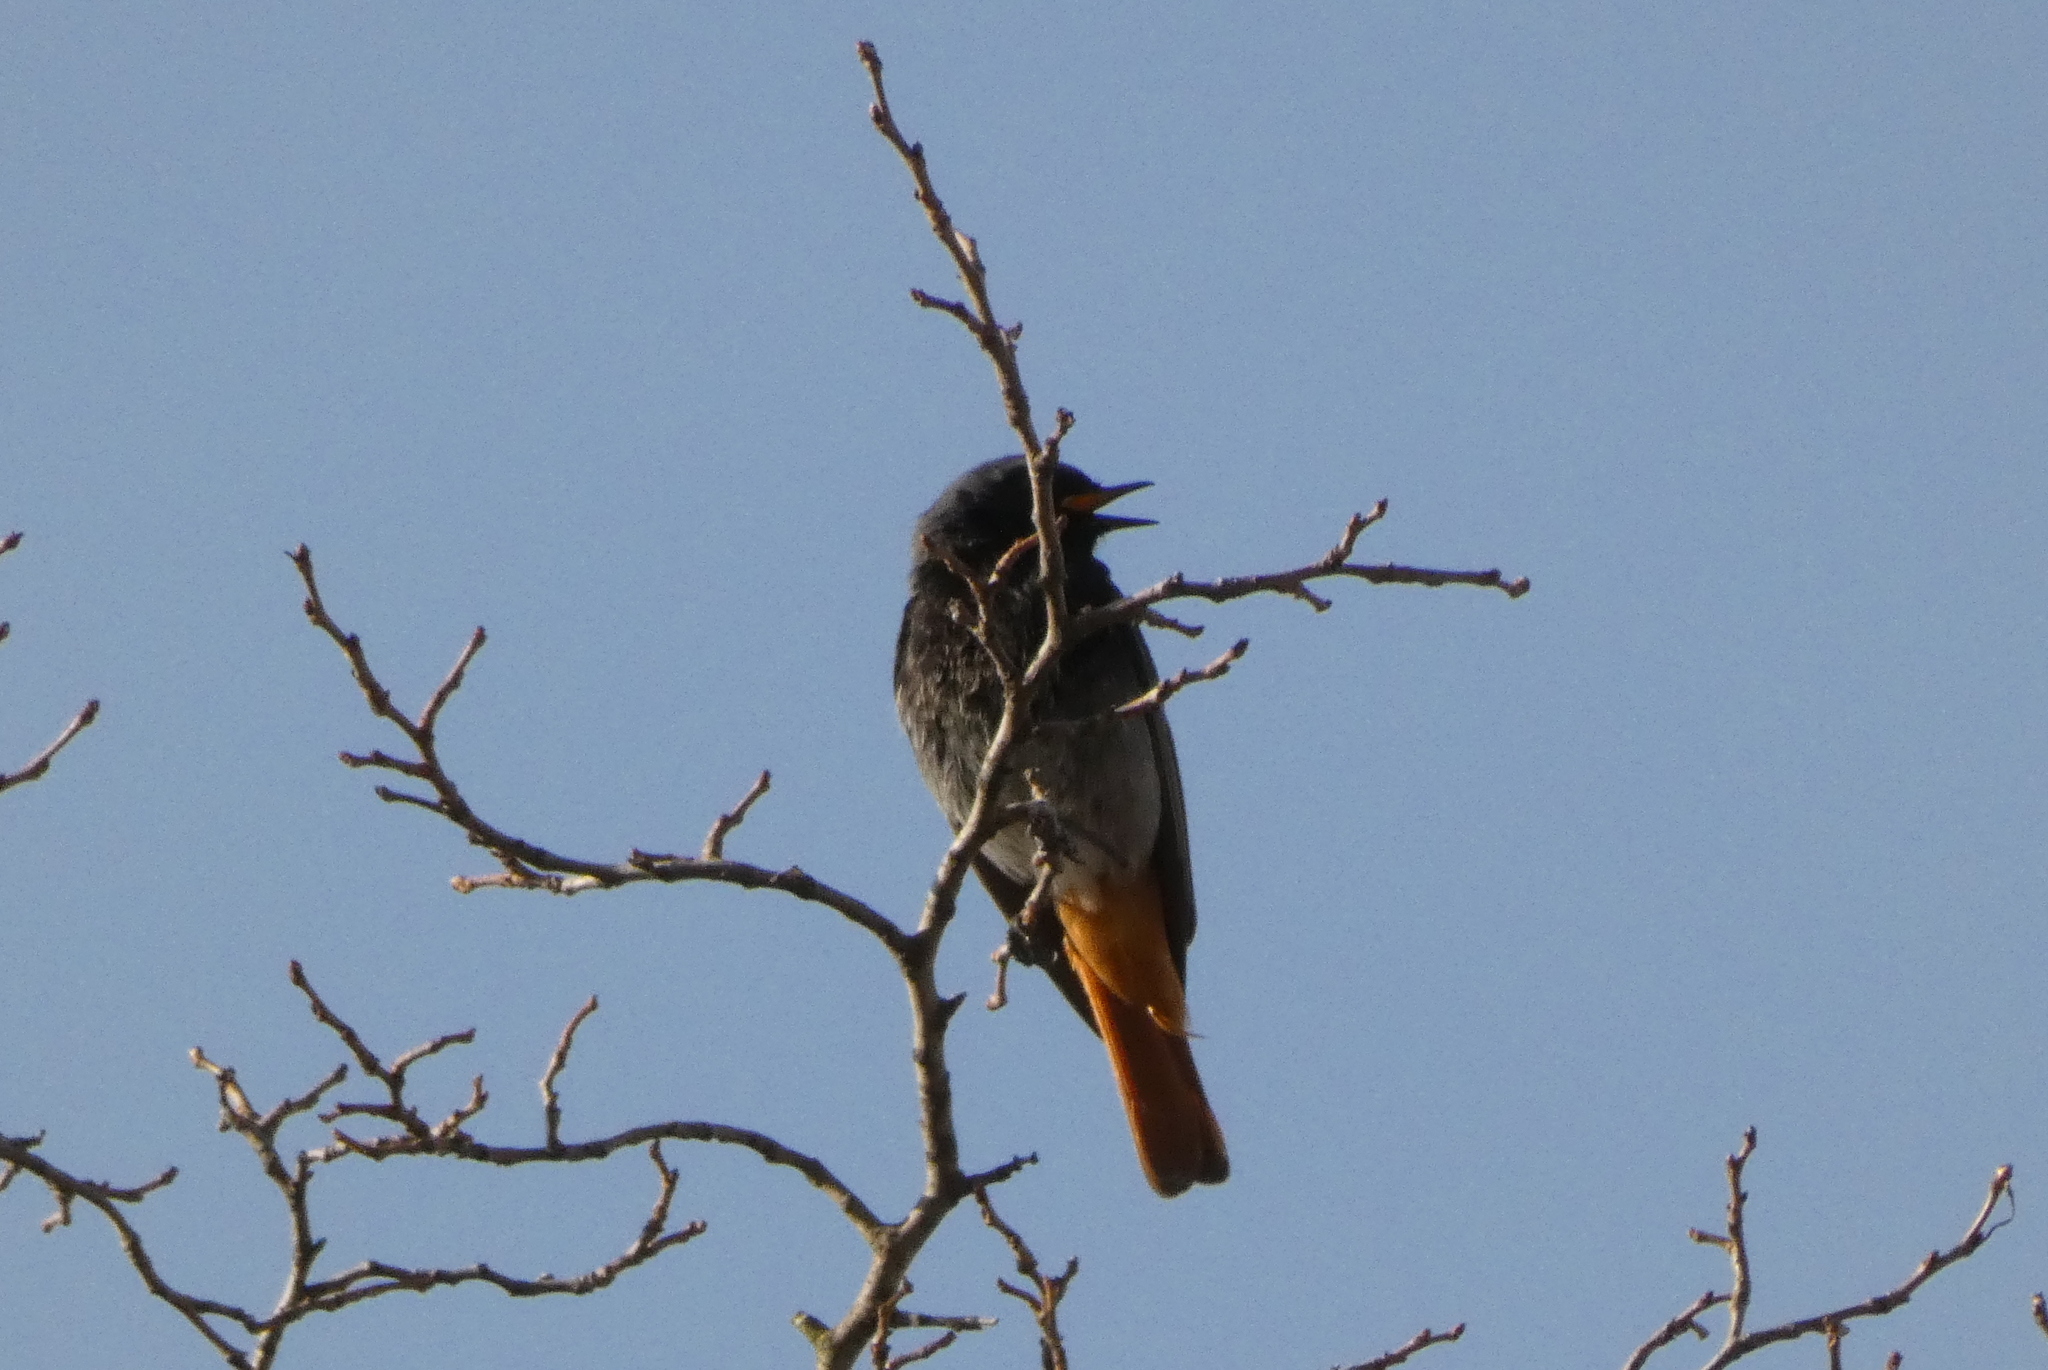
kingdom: Animalia
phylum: Chordata
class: Aves
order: Passeriformes
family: Muscicapidae
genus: Phoenicurus
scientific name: Phoenicurus ochruros
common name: Black redstart
